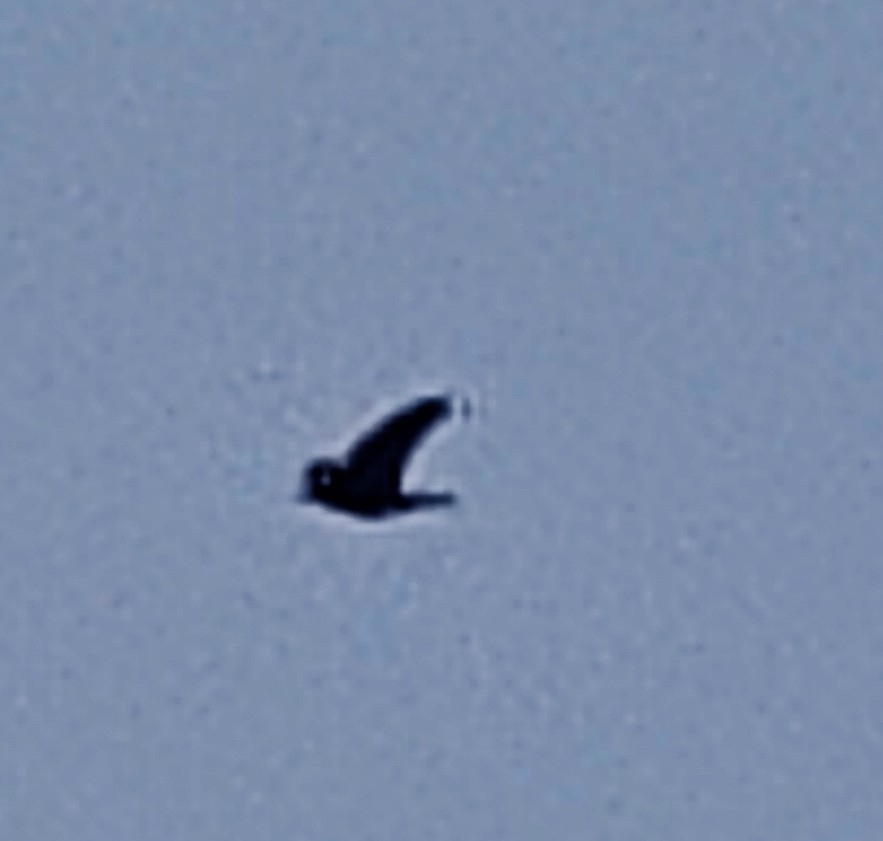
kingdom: Animalia
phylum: Chordata
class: Aves
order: Passeriformes
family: Corvidae
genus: Coloeus
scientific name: Coloeus monedula
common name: Western jackdaw
